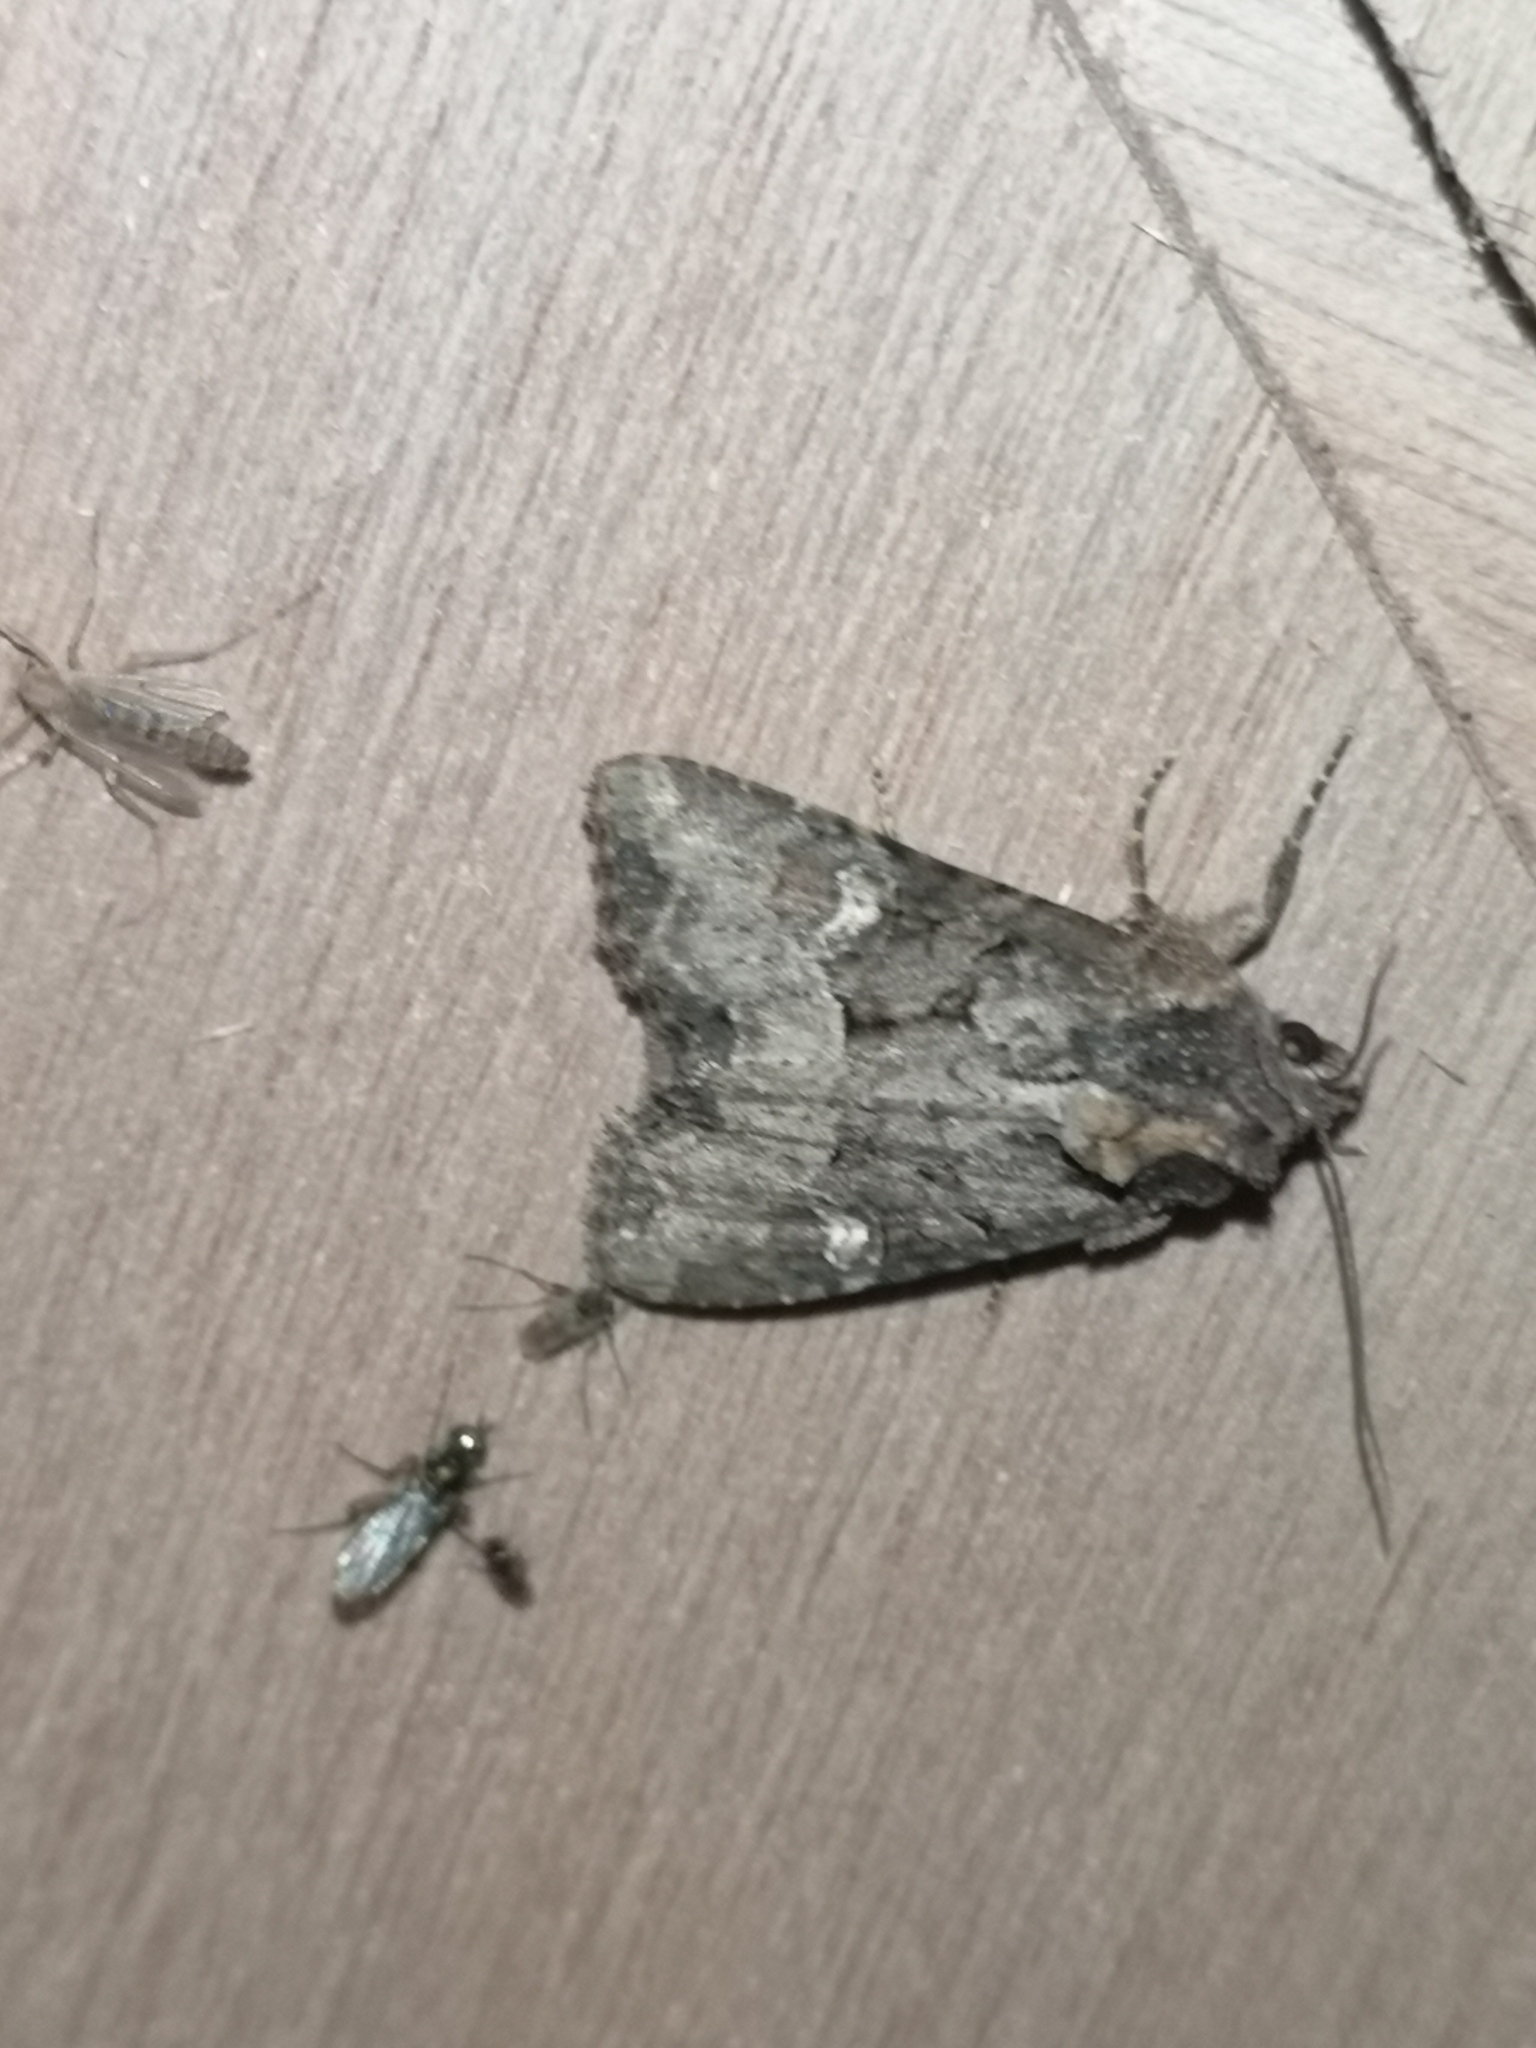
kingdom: Animalia
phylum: Arthropoda
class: Insecta
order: Lepidoptera
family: Noctuidae
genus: Mesapamea
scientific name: Mesapamea
